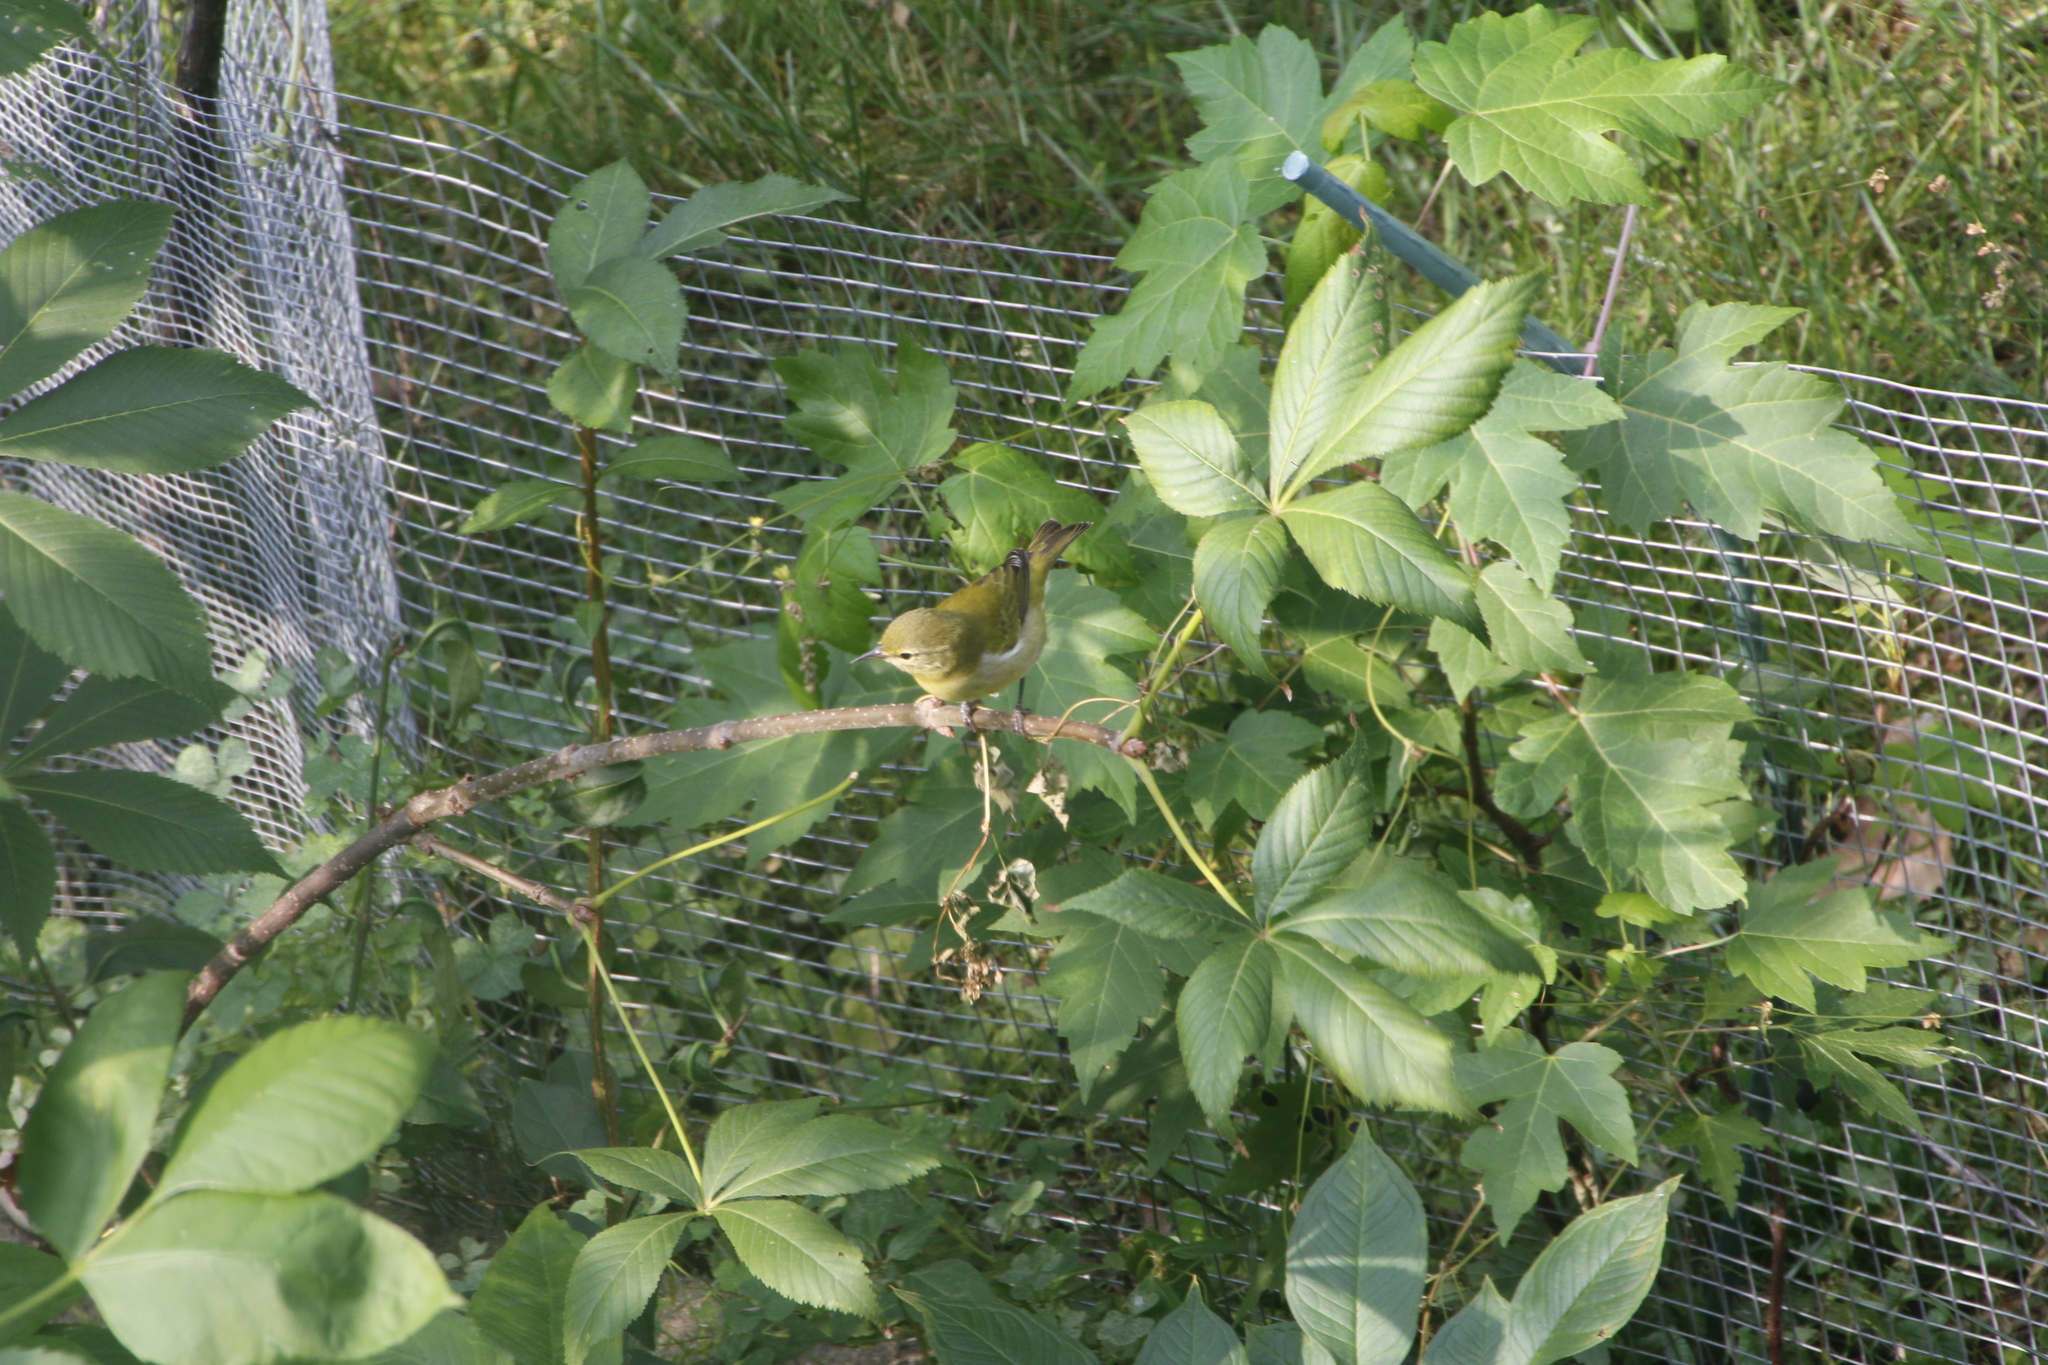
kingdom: Animalia
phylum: Chordata
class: Aves
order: Passeriformes
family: Parulidae
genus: Leiothlypis
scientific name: Leiothlypis peregrina
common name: Tennessee warbler
